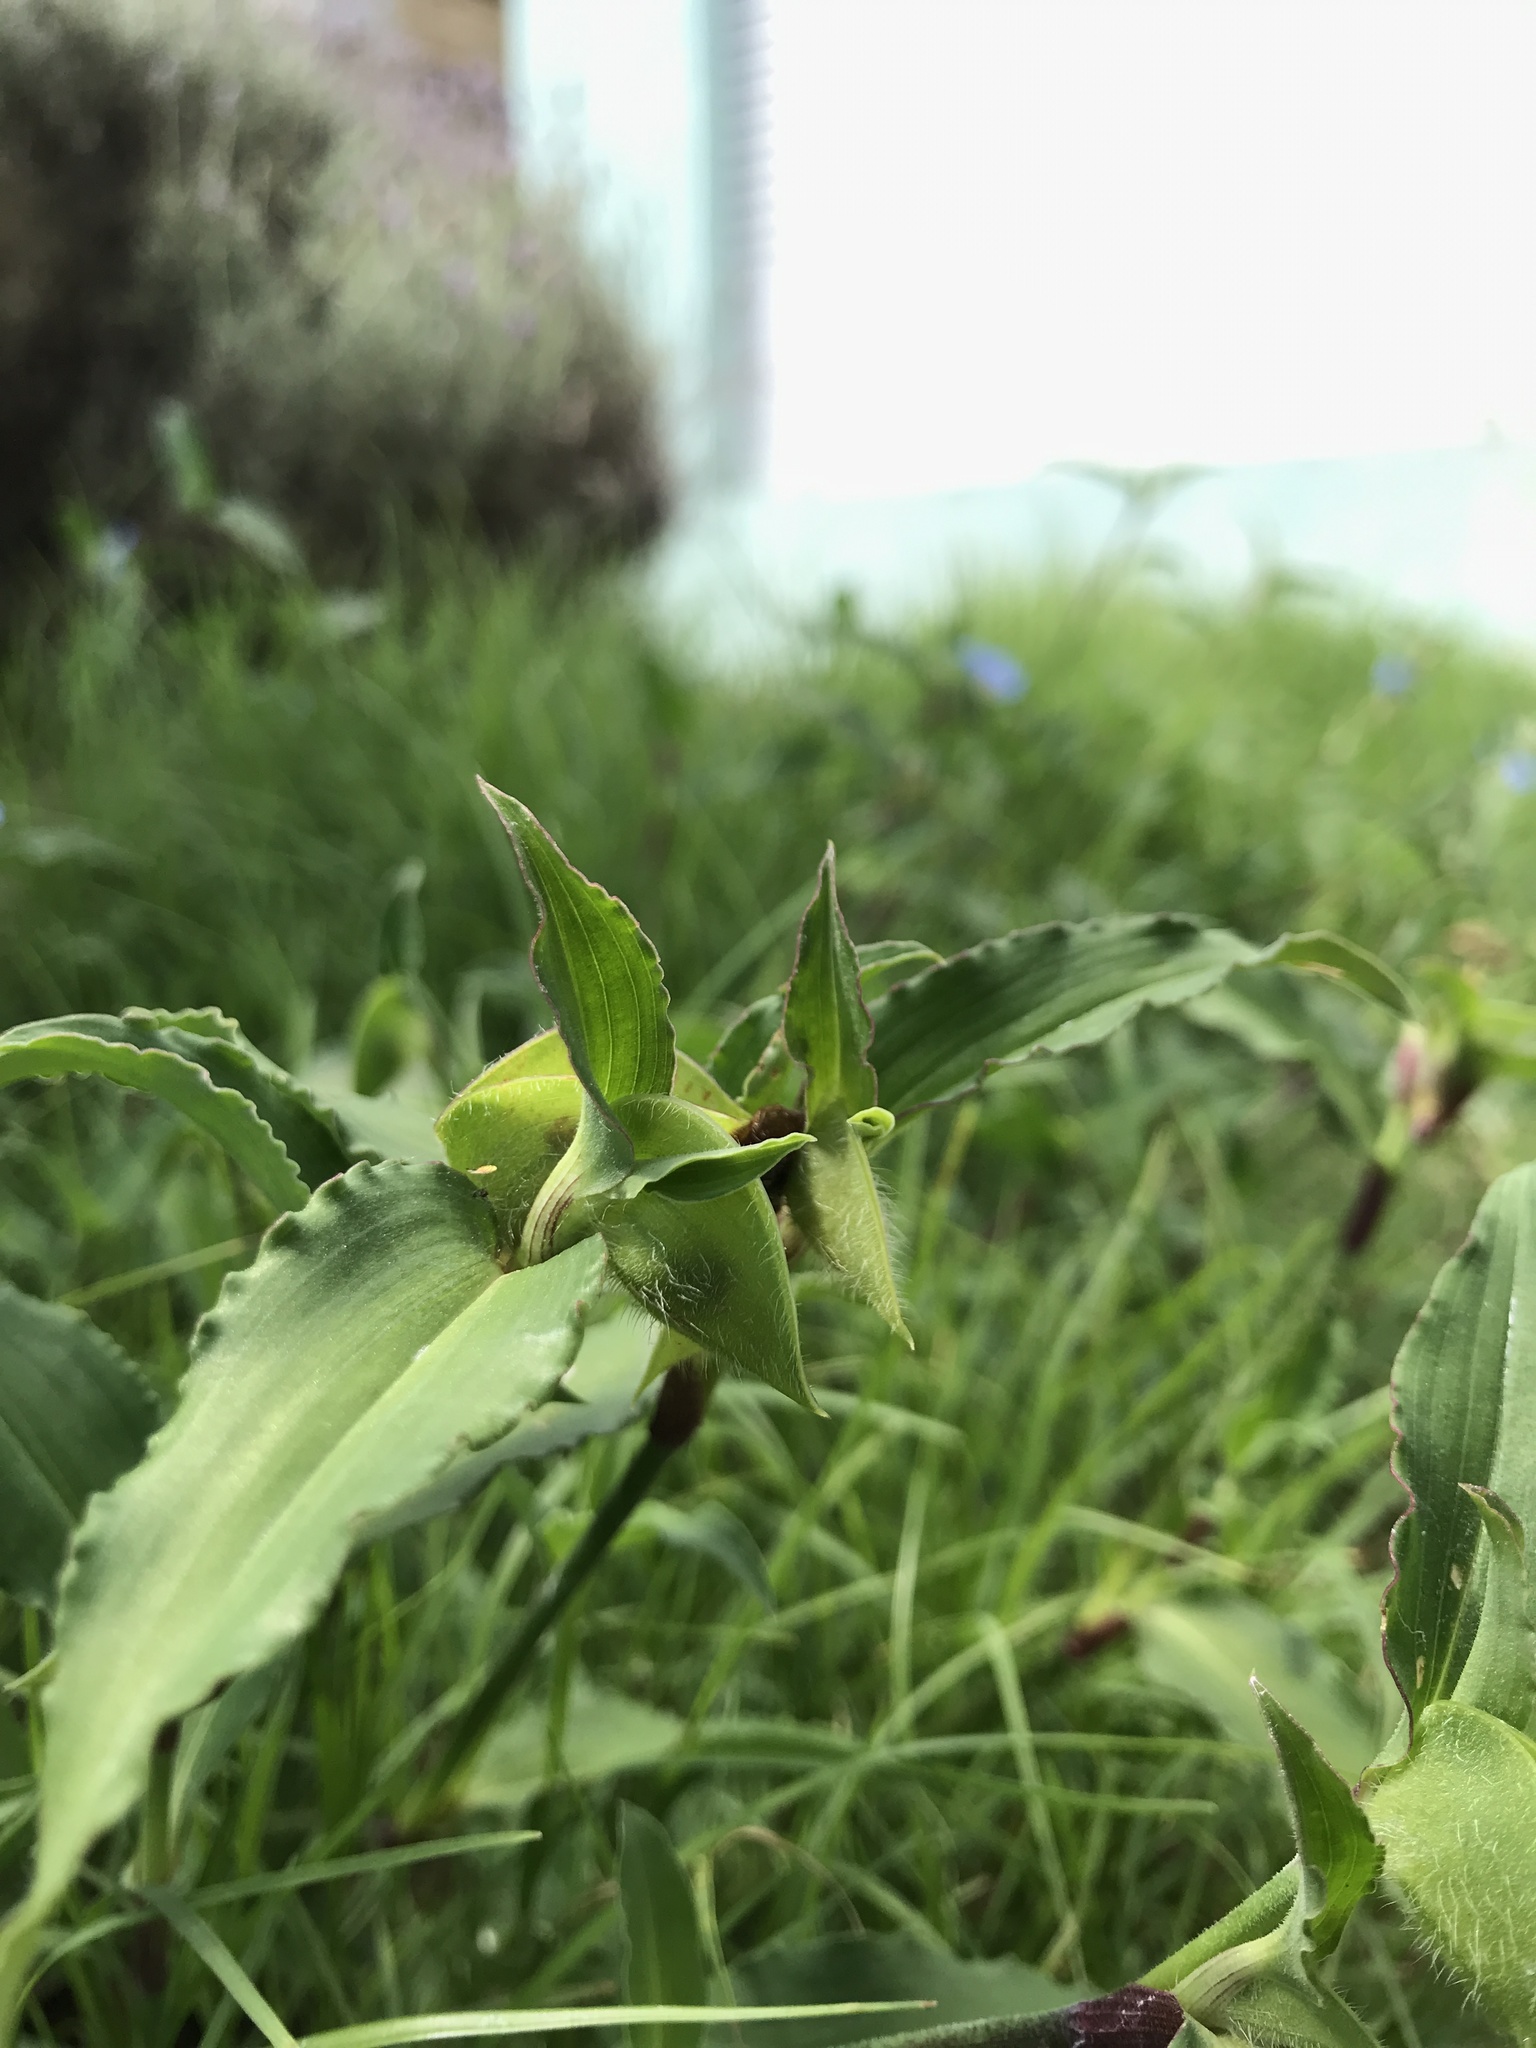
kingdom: Plantae
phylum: Tracheophyta
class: Liliopsida
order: Commelinales
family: Commelinaceae
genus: Commelina
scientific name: Commelina erecta
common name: Blousel blommetjie
